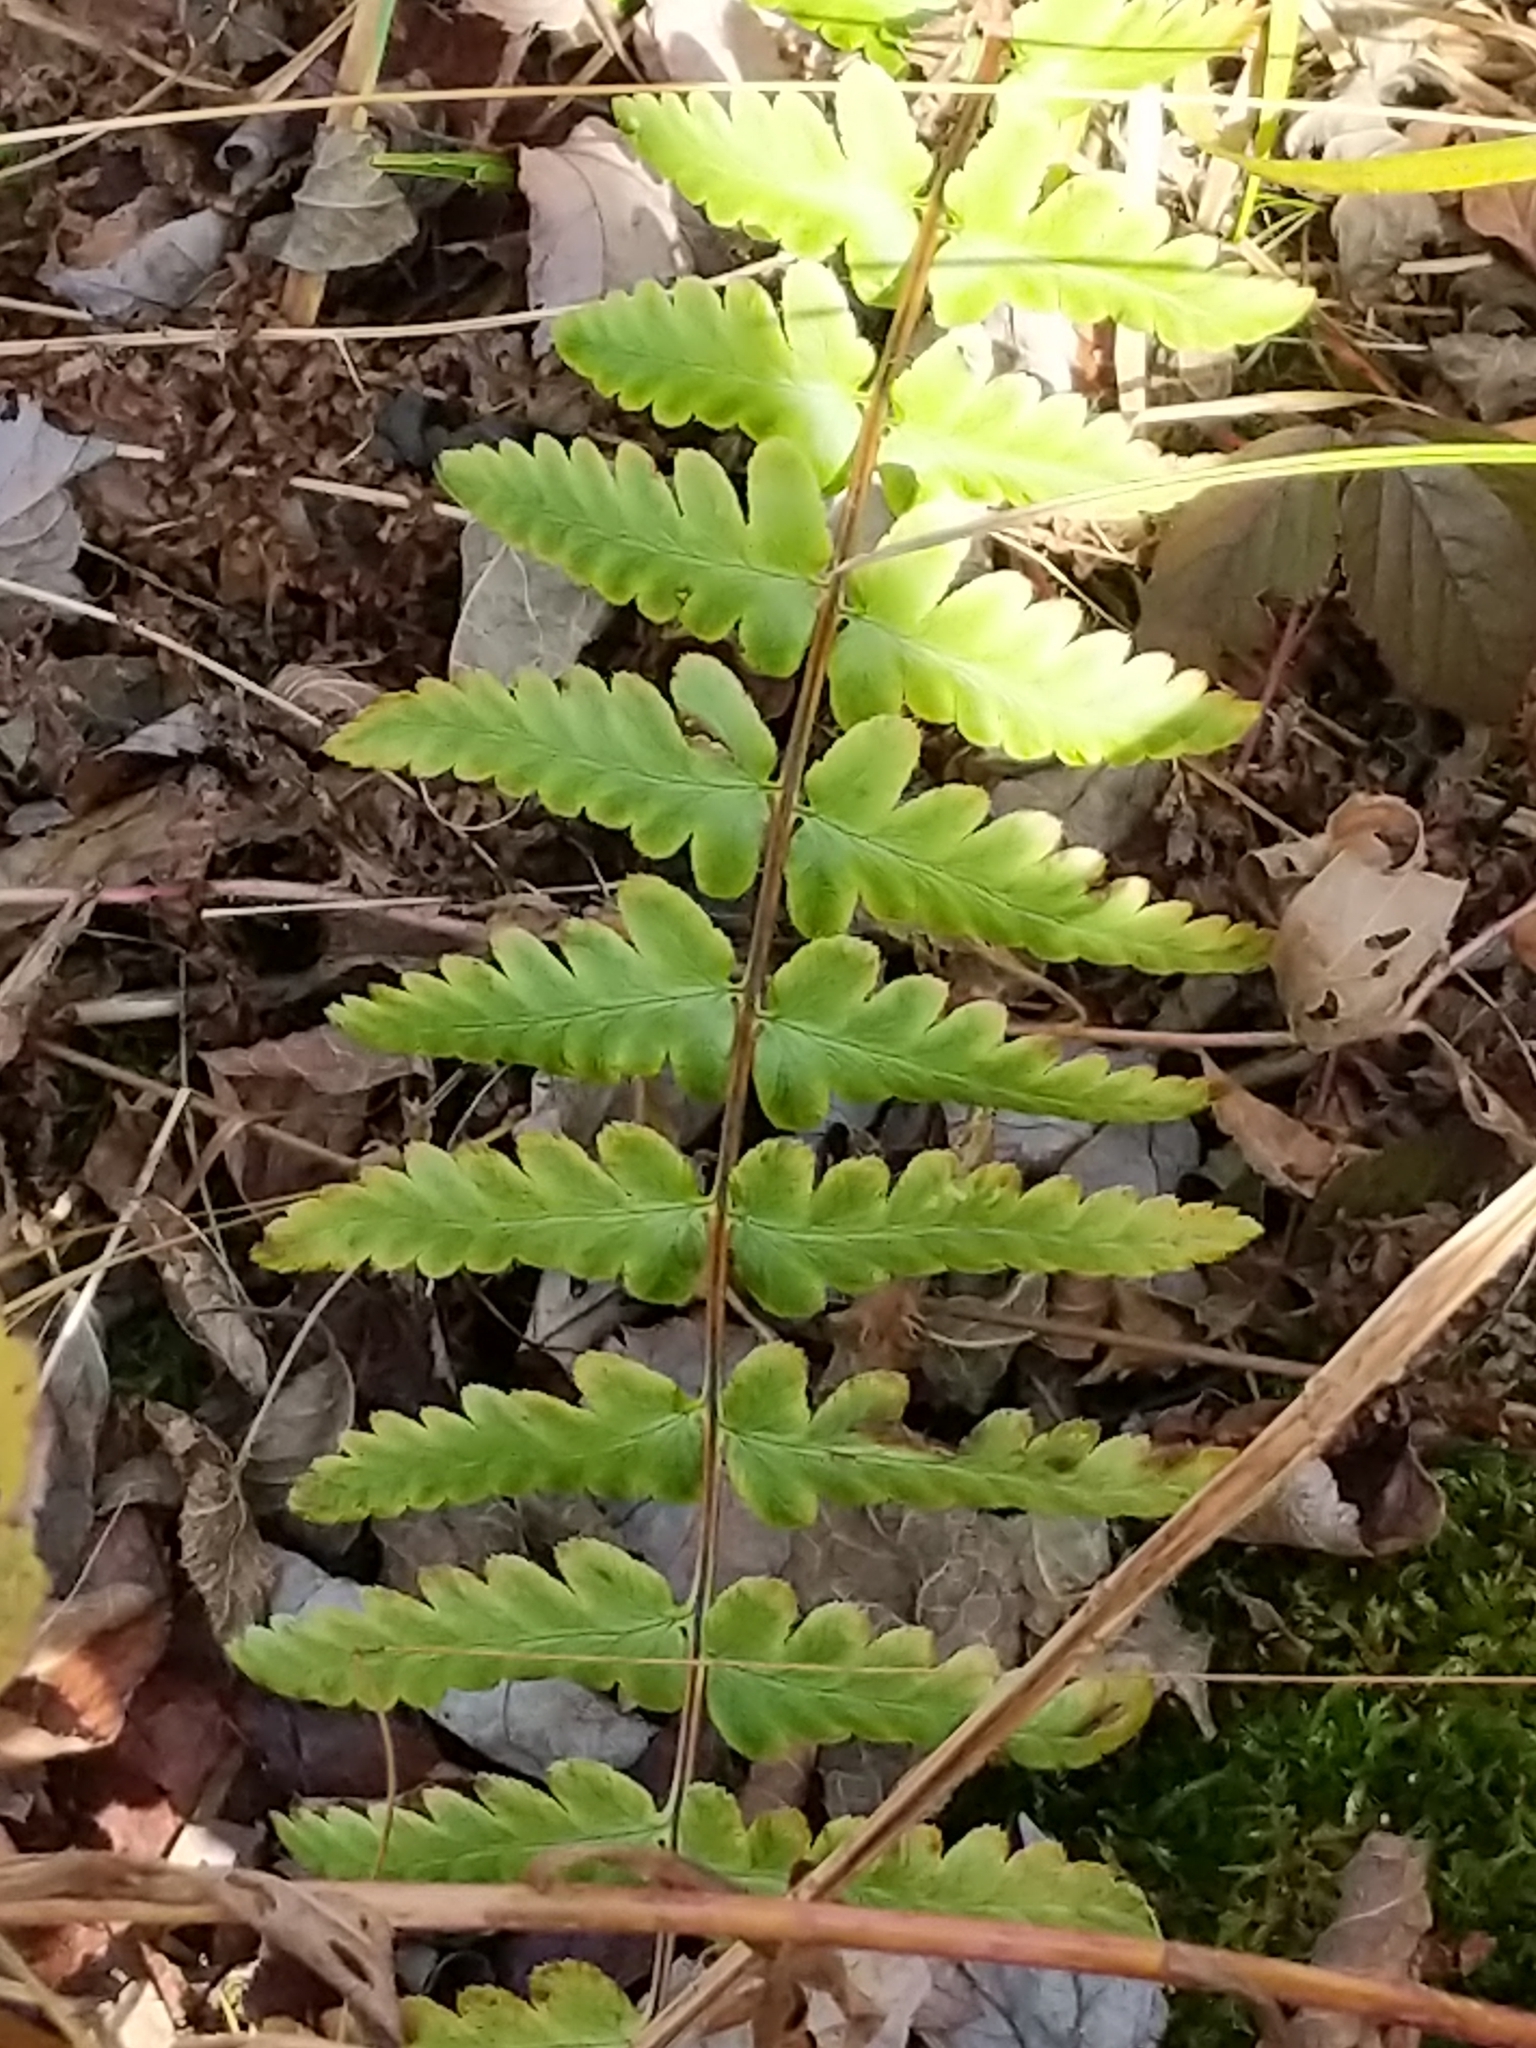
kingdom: Plantae
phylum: Tracheophyta
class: Polypodiopsida
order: Polypodiales
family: Dryopteridaceae
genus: Dryopteris
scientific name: Dryopteris cristata
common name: Crested wood fern
